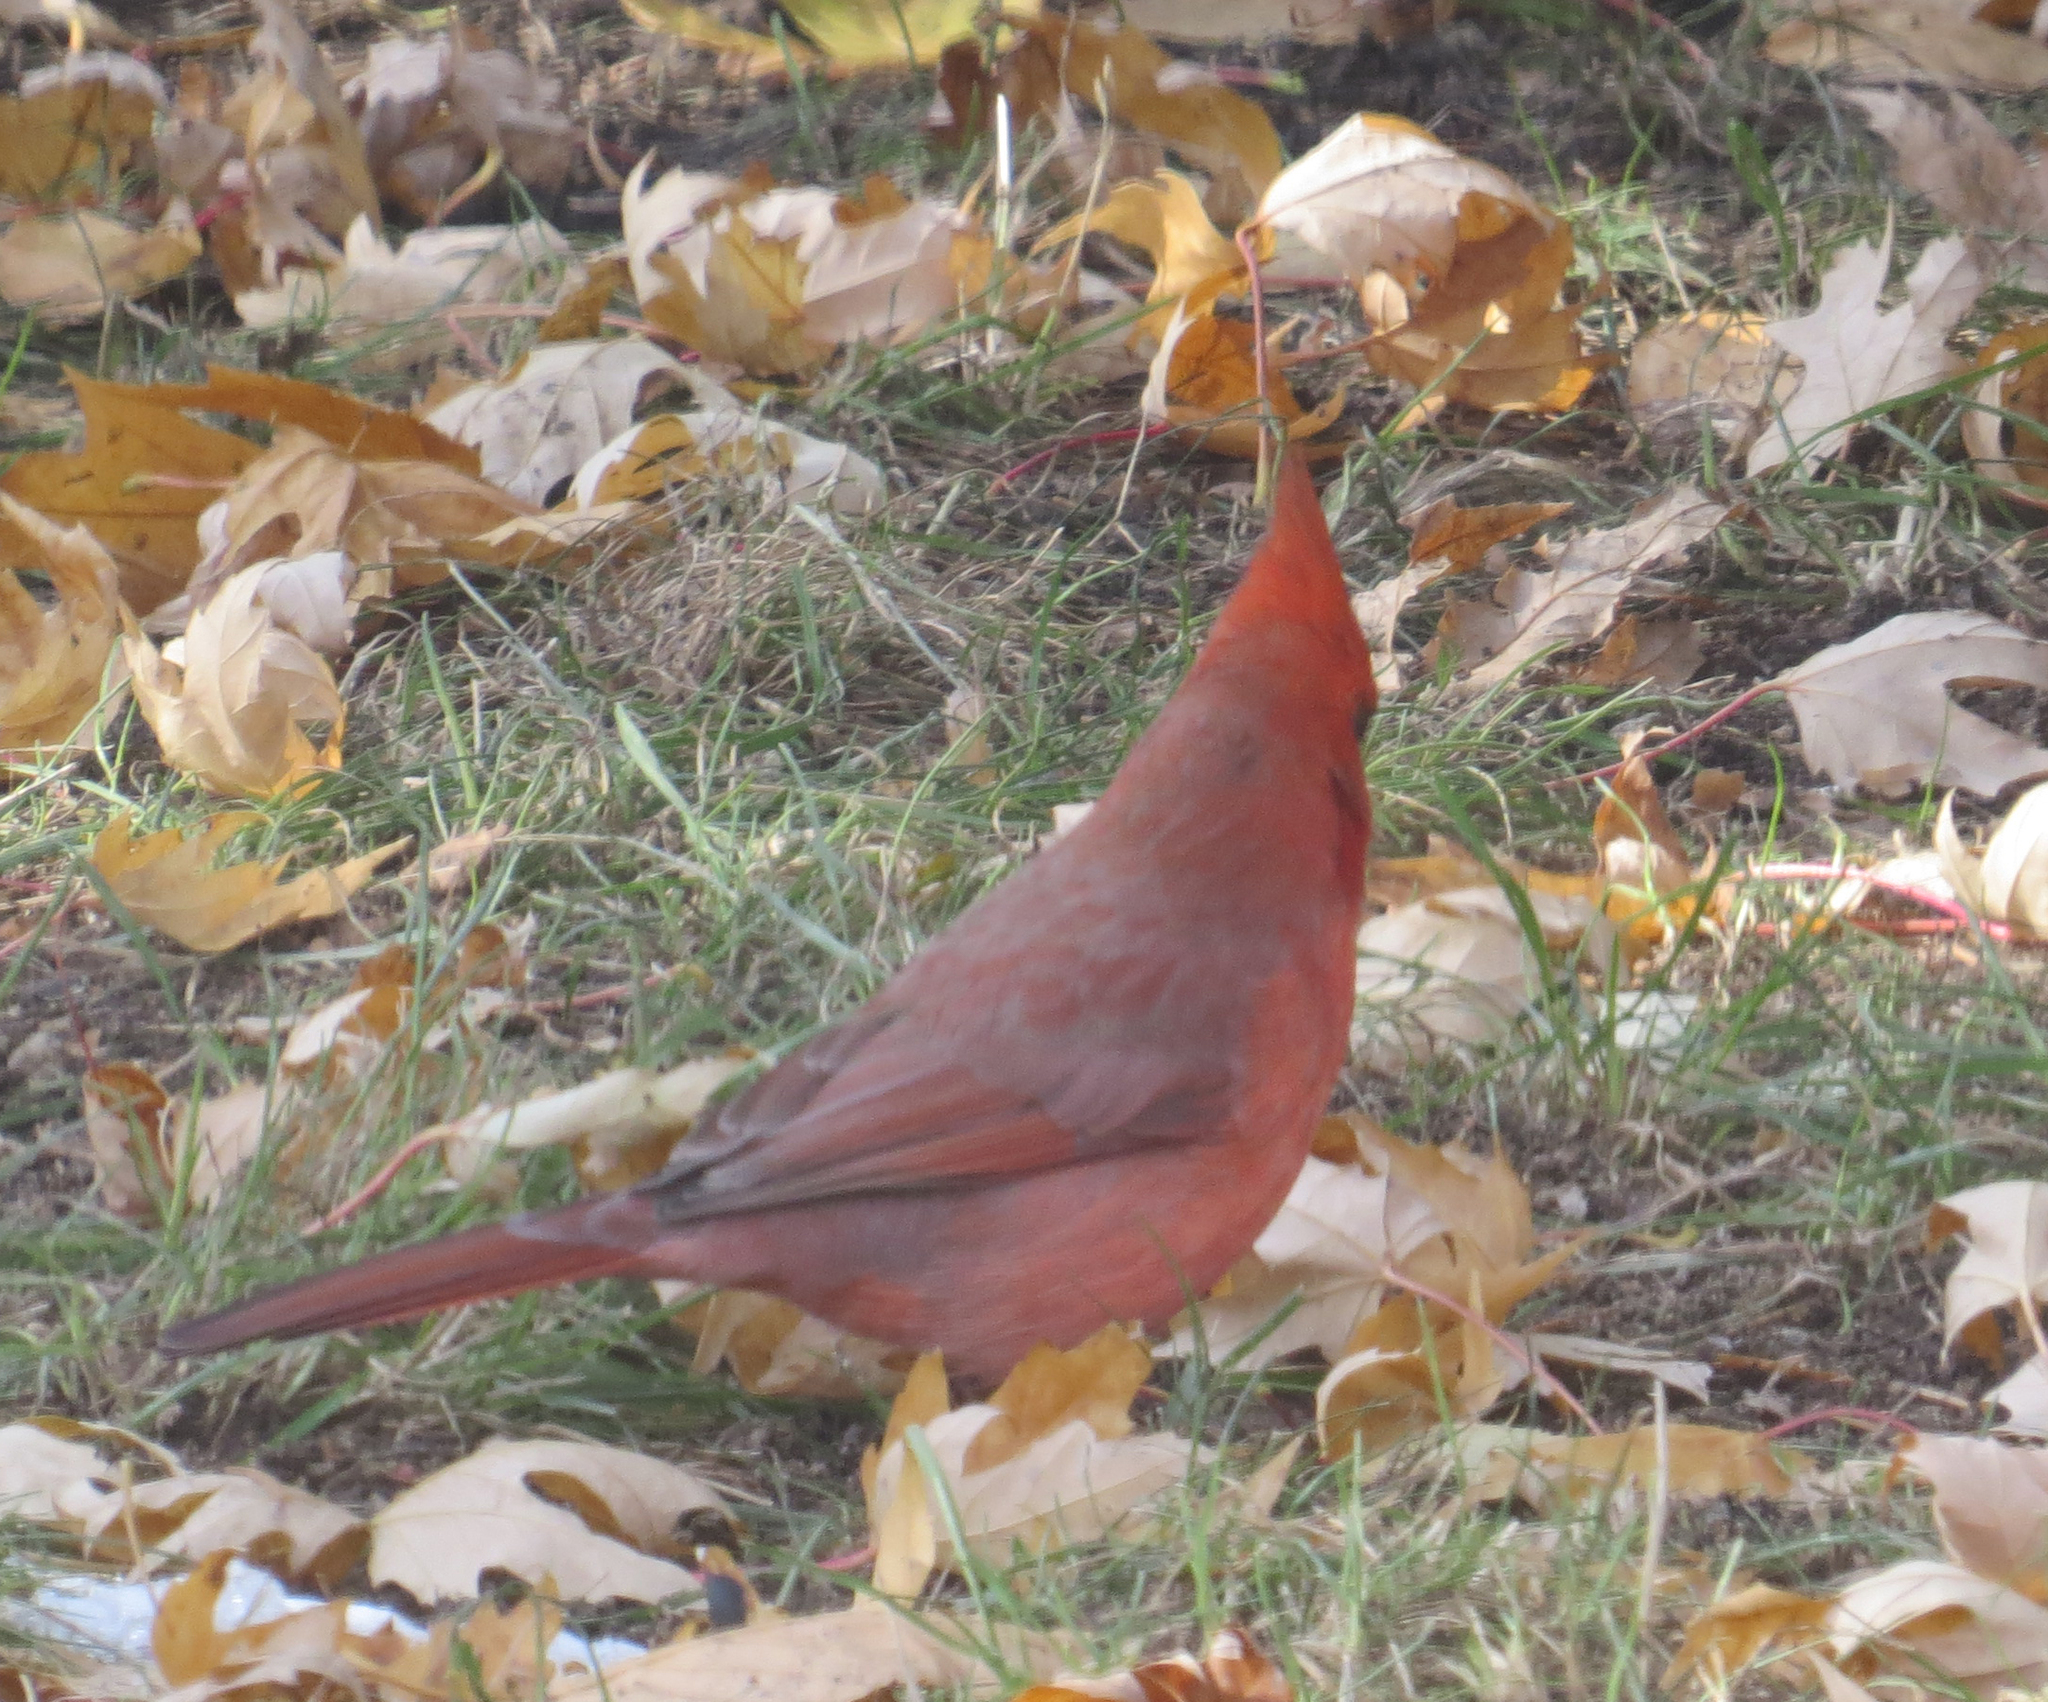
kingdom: Animalia
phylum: Chordata
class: Aves
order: Passeriformes
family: Cardinalidae
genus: Cardinalis
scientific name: Cardinalis cardinalis
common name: Northern cardinal
